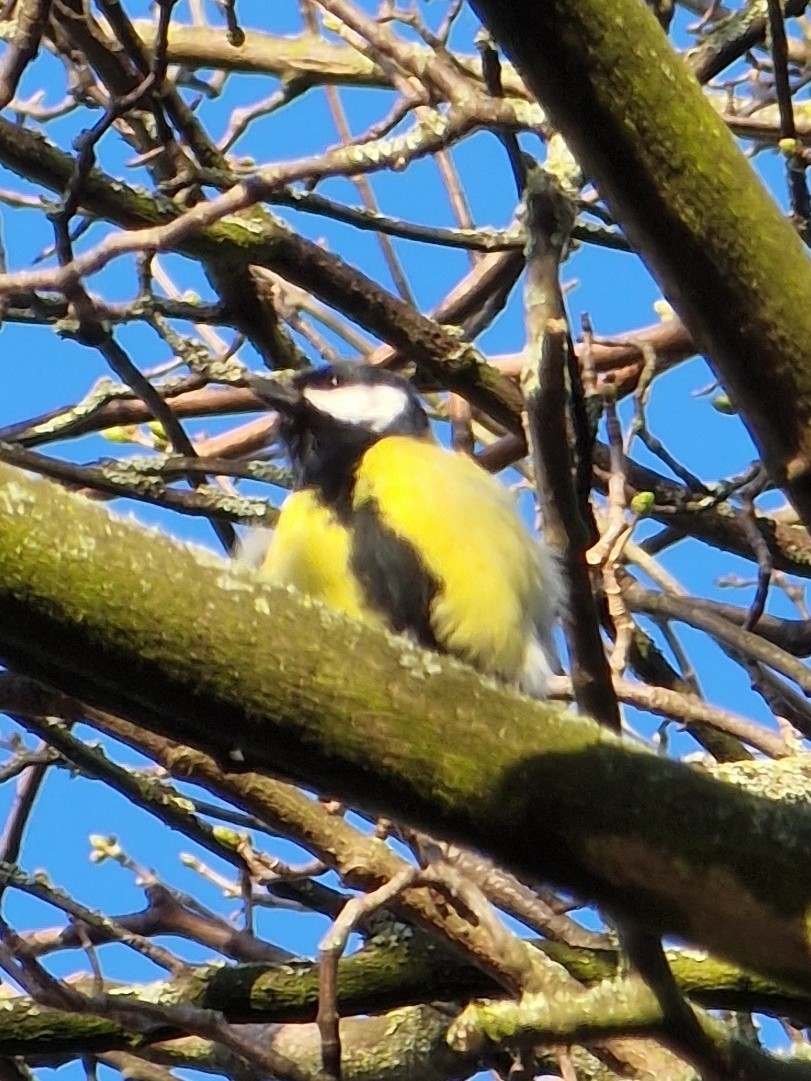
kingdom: Animalia
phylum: Chordata
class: Aves
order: Passeriformes
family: Paridae
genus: Parus
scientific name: Parus major
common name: Great tit
